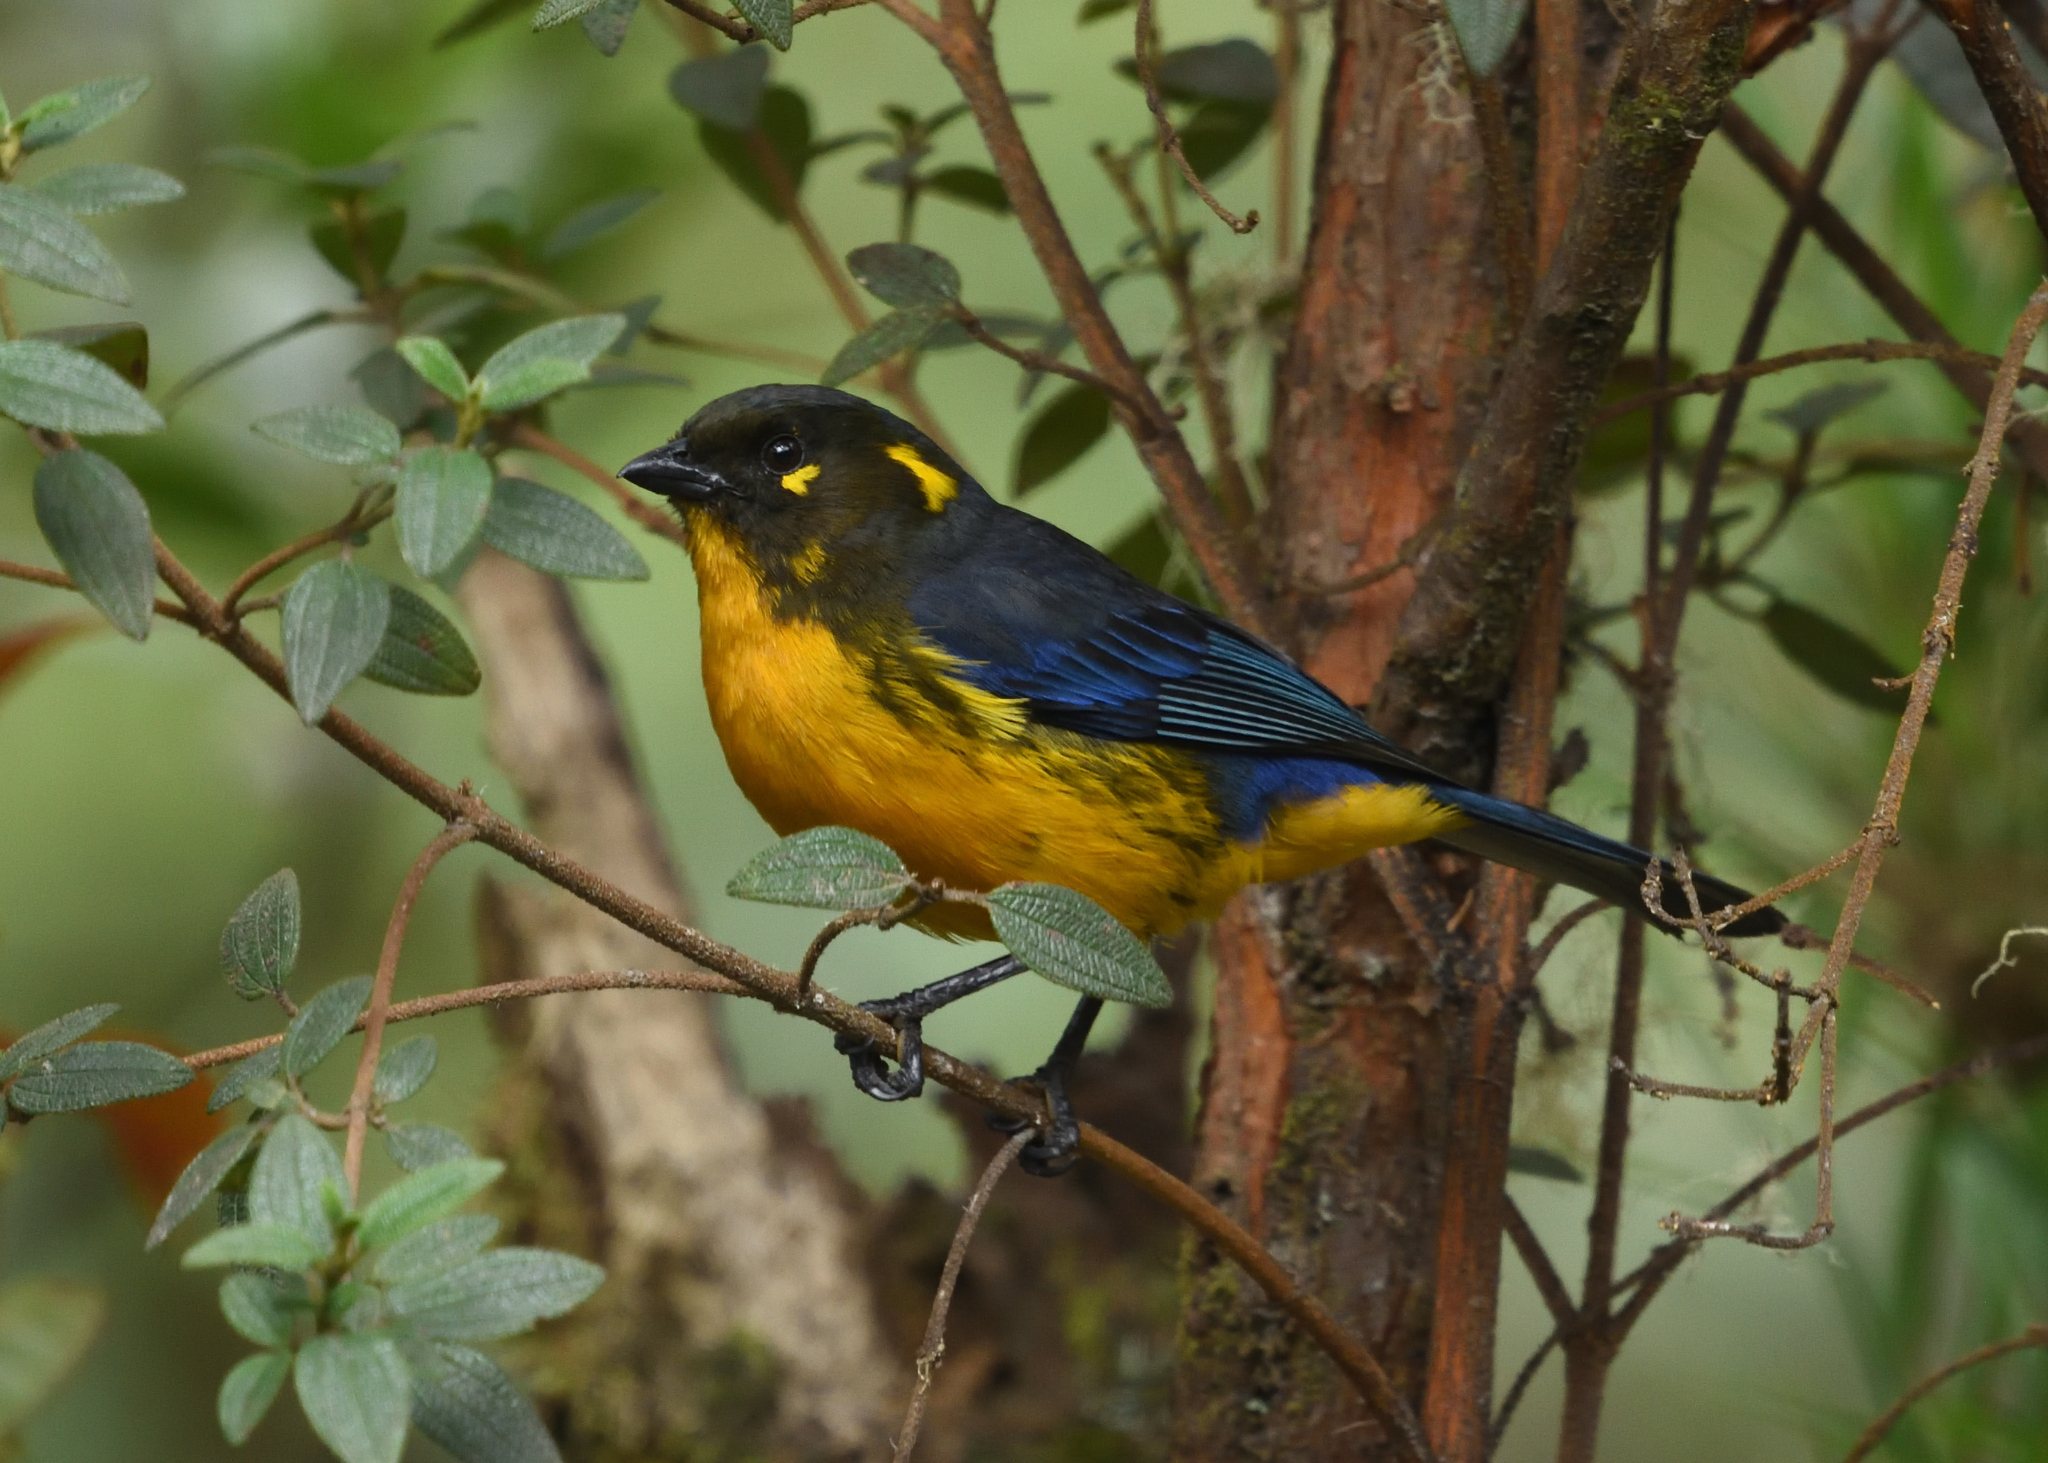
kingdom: Animalia
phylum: Chordata
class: Aves
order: Passeriformes
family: Thraupidae
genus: Anisognathus
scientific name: Anisognathus lacrymosus
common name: Lacrimose mountain-tanager
